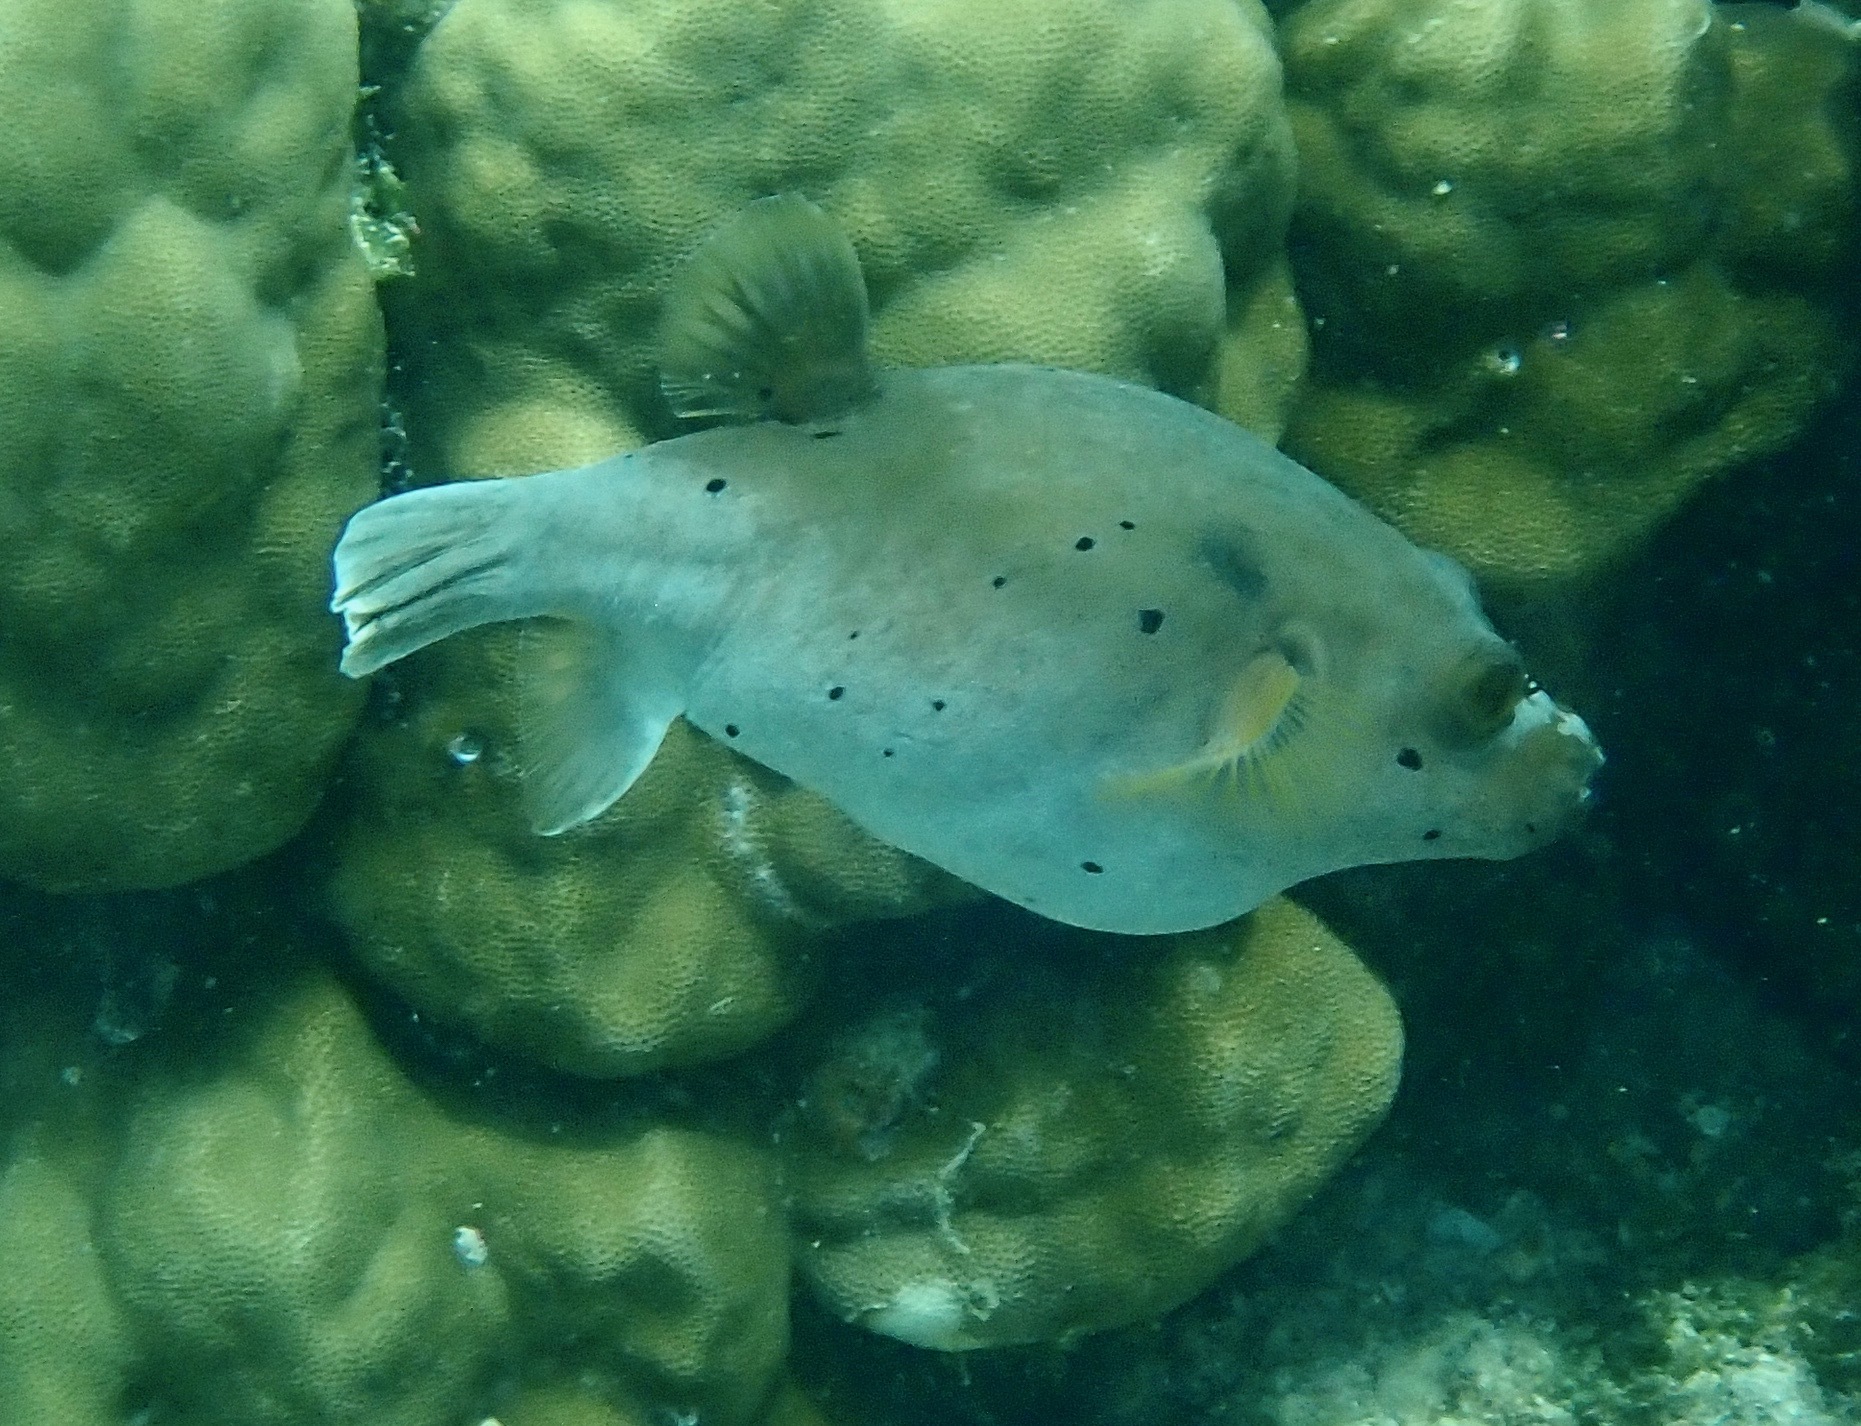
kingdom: Animalia
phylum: Chordata
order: Tetraodontiformes
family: Tetraodontidae
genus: Arothron
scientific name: Arothron nigropunctatus
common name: Black spotted blow fish
